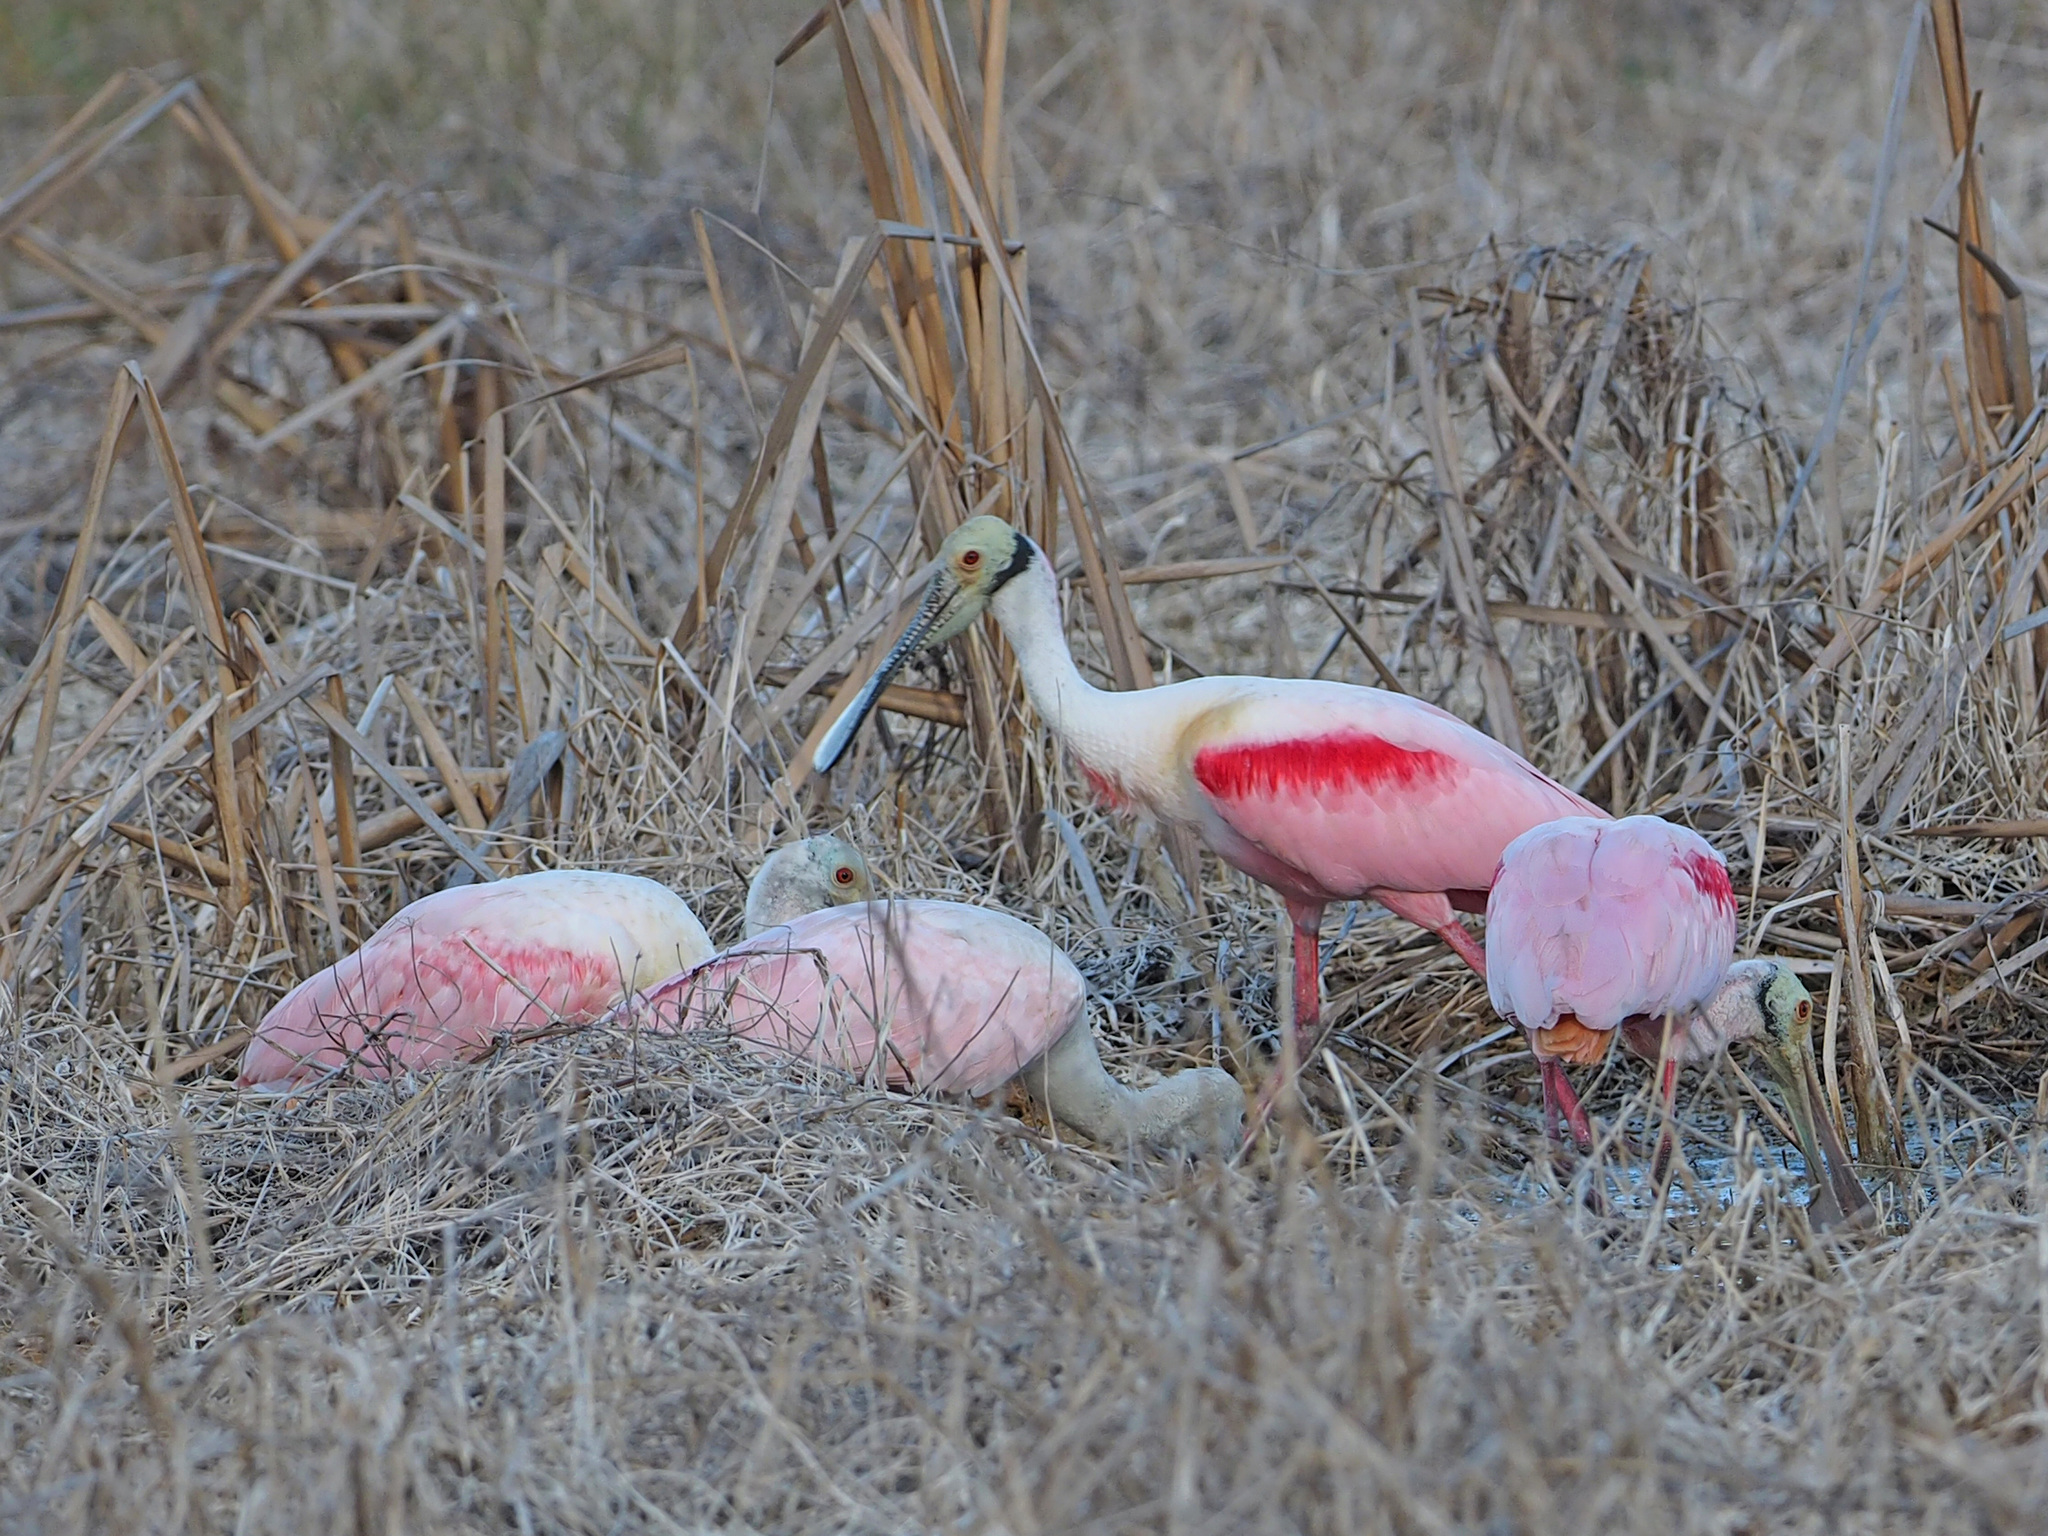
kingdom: Animalia
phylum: Chordata
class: Aves
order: Pelecaniformes
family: Threskiornithidae
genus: Platalea
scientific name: Platalea ajaja
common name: Roseate spoonbill
